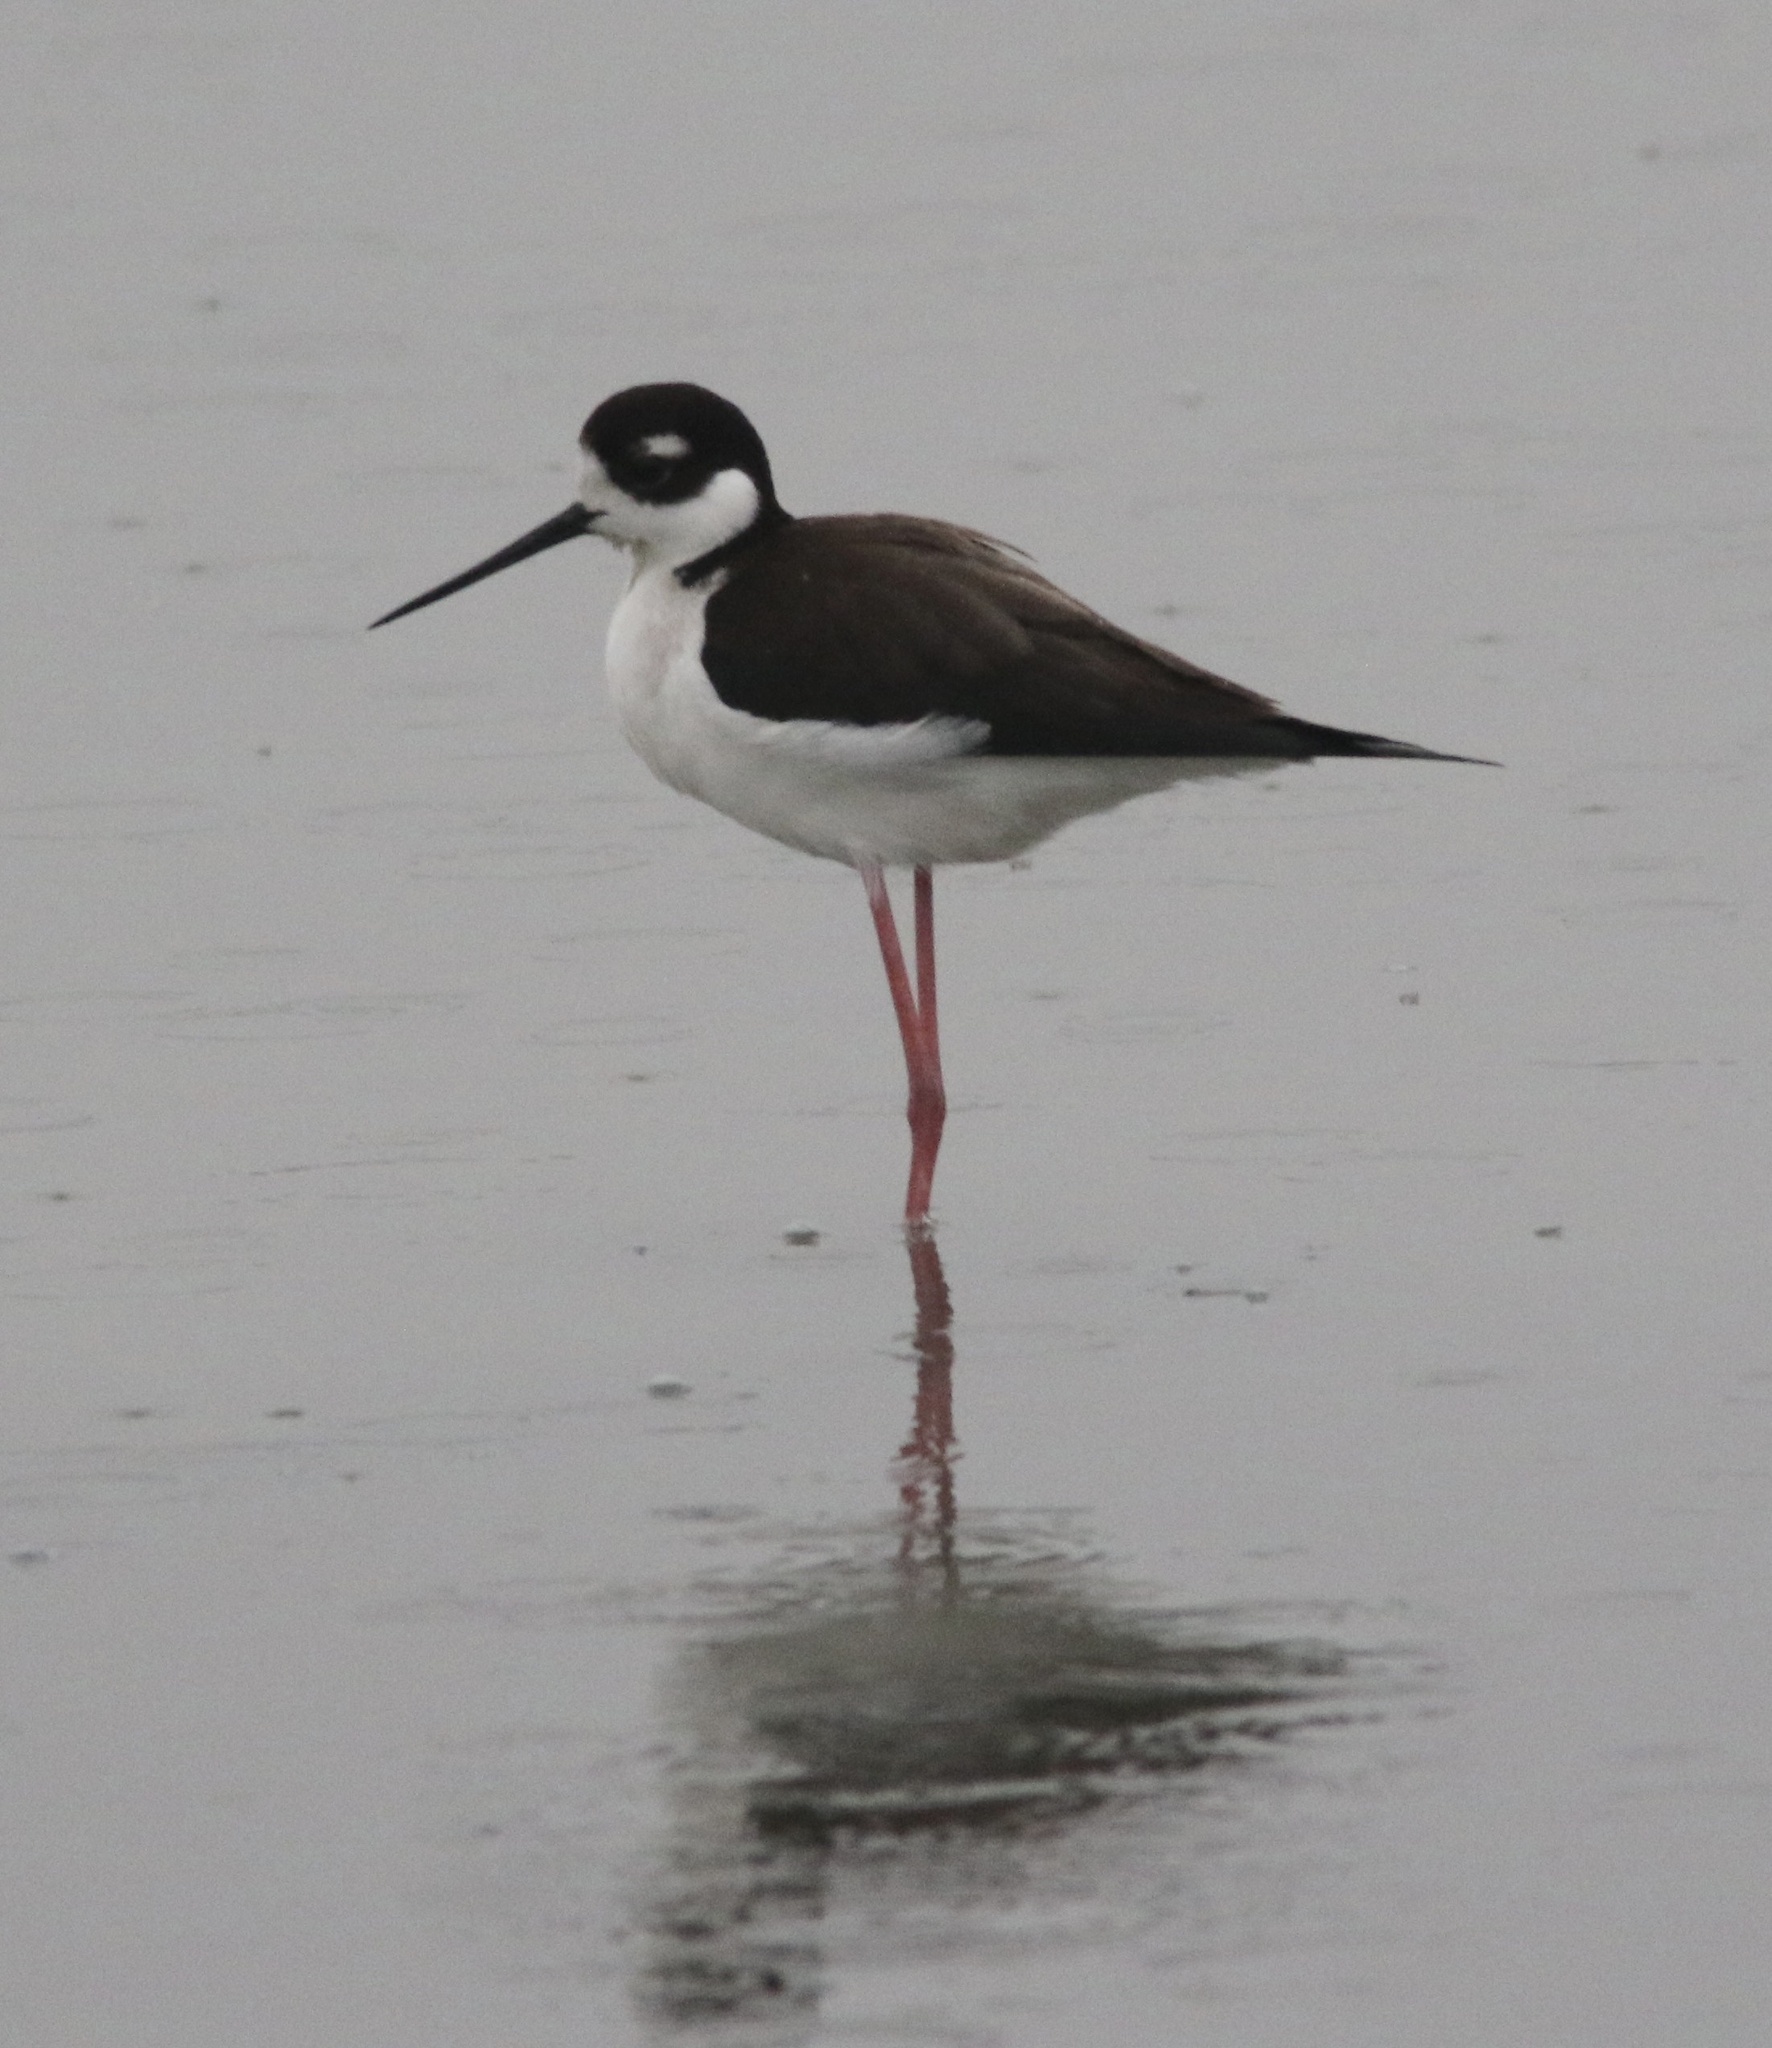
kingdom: Animalia
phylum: Chordata
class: Aves
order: Charadriiformes
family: Recurvirostridae
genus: Himantopus
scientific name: Himantopus mexicanus
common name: Black-necked stilt
